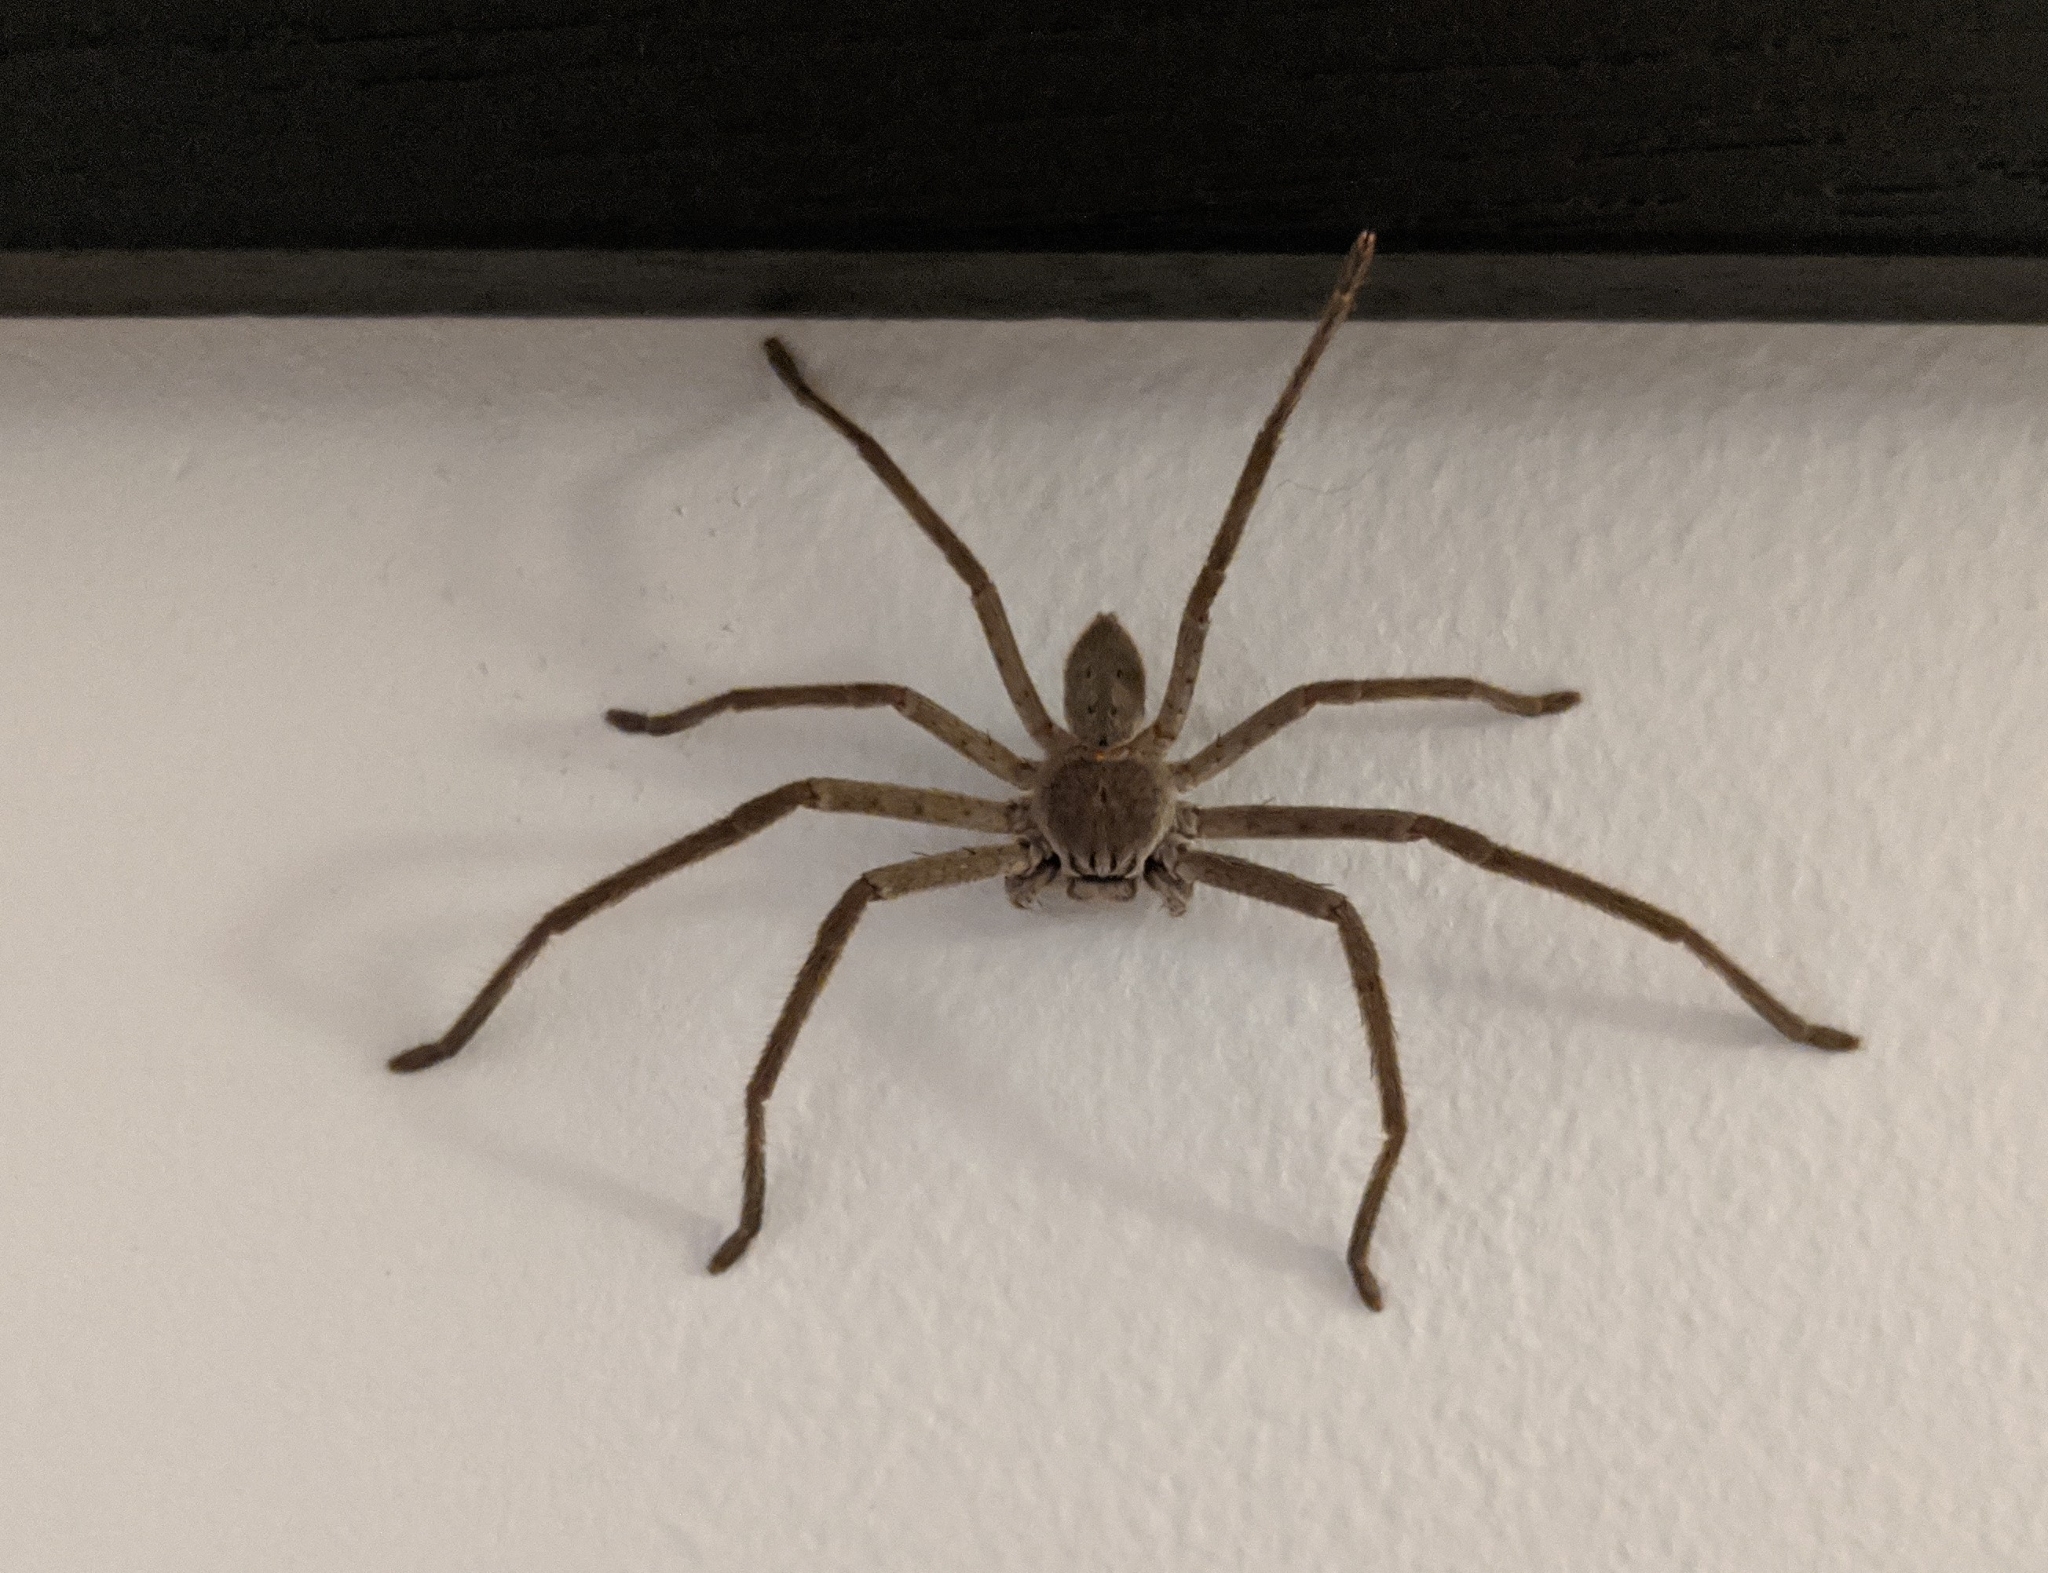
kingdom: Animalia
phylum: Arthropoda
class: Arachnida
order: Araneae
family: Sparassidae
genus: Isopeda
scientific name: Isopeda villosa
